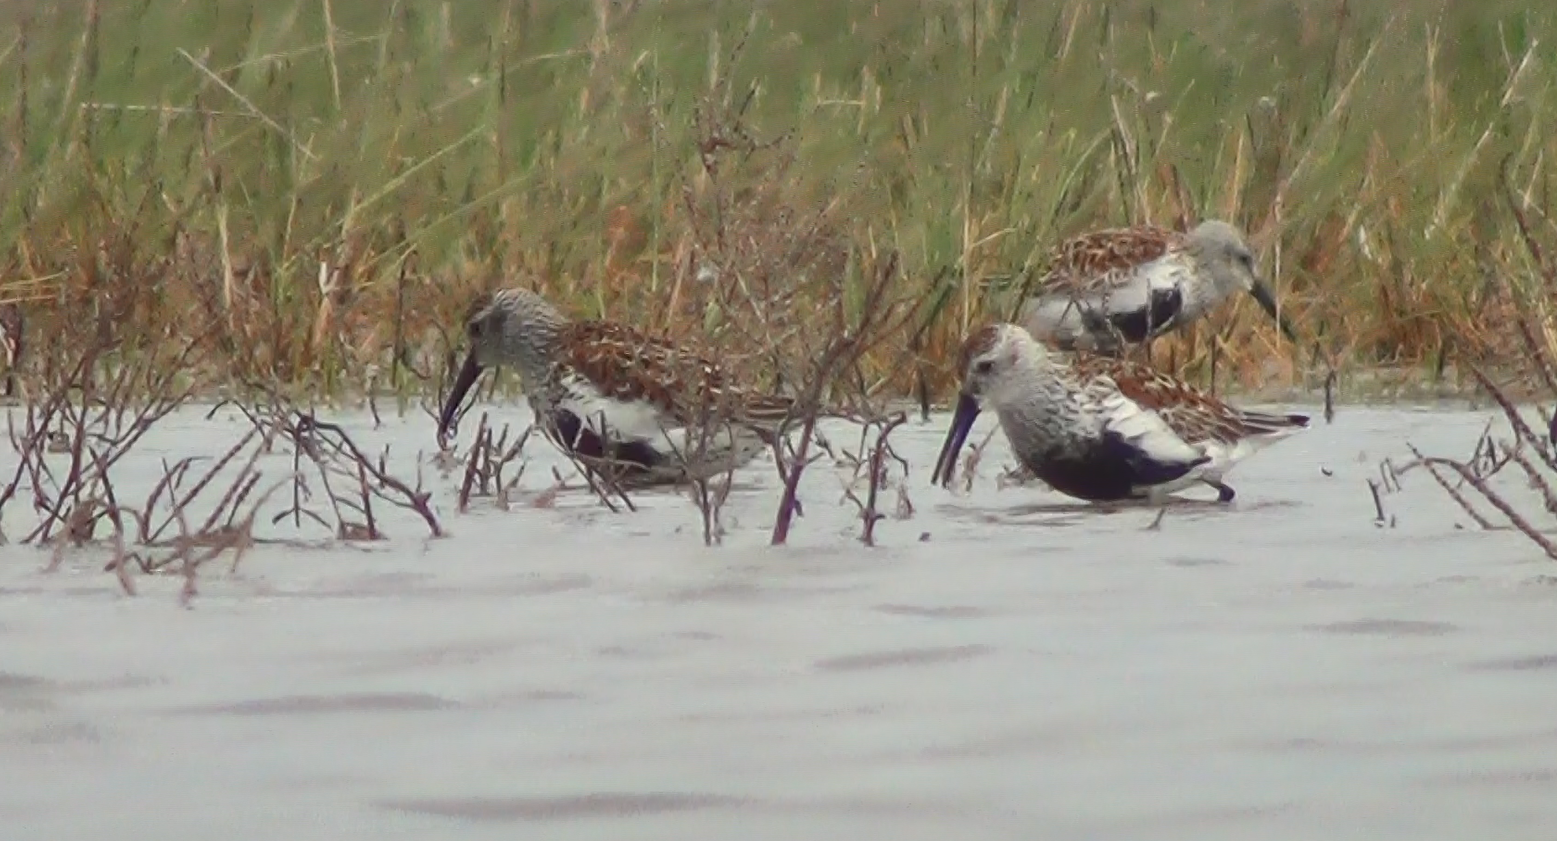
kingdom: Animalia
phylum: Chordata
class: Aves
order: Charadriiformes
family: Scolopacidae
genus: Calidris
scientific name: Calidris alpina
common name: Dunlin
